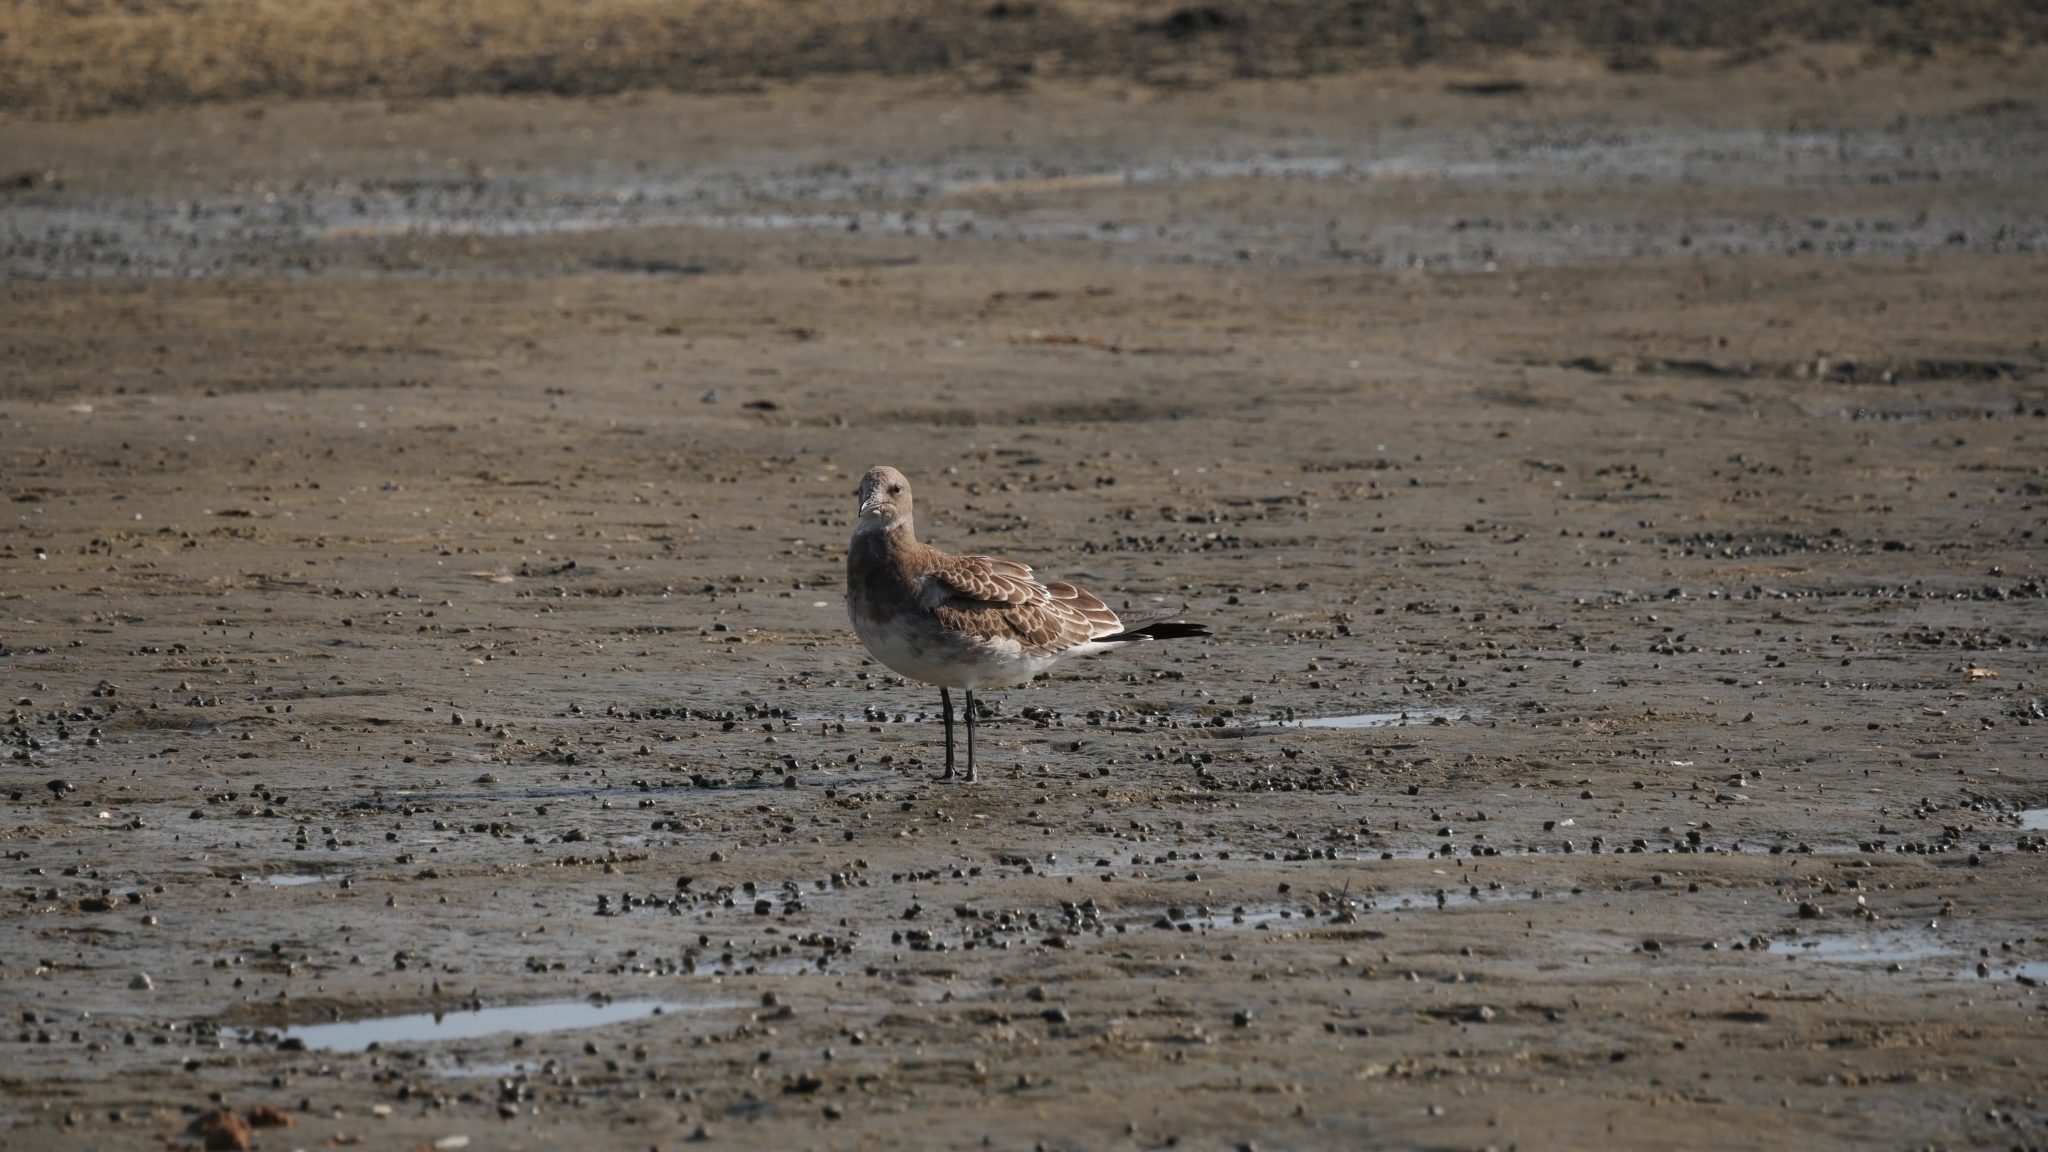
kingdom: Animalia
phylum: Chordata
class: Aves
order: Charadriiformes
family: Laridae
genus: Leucophaeus
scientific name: Leucophaeus atricilla
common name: Laughing gull
